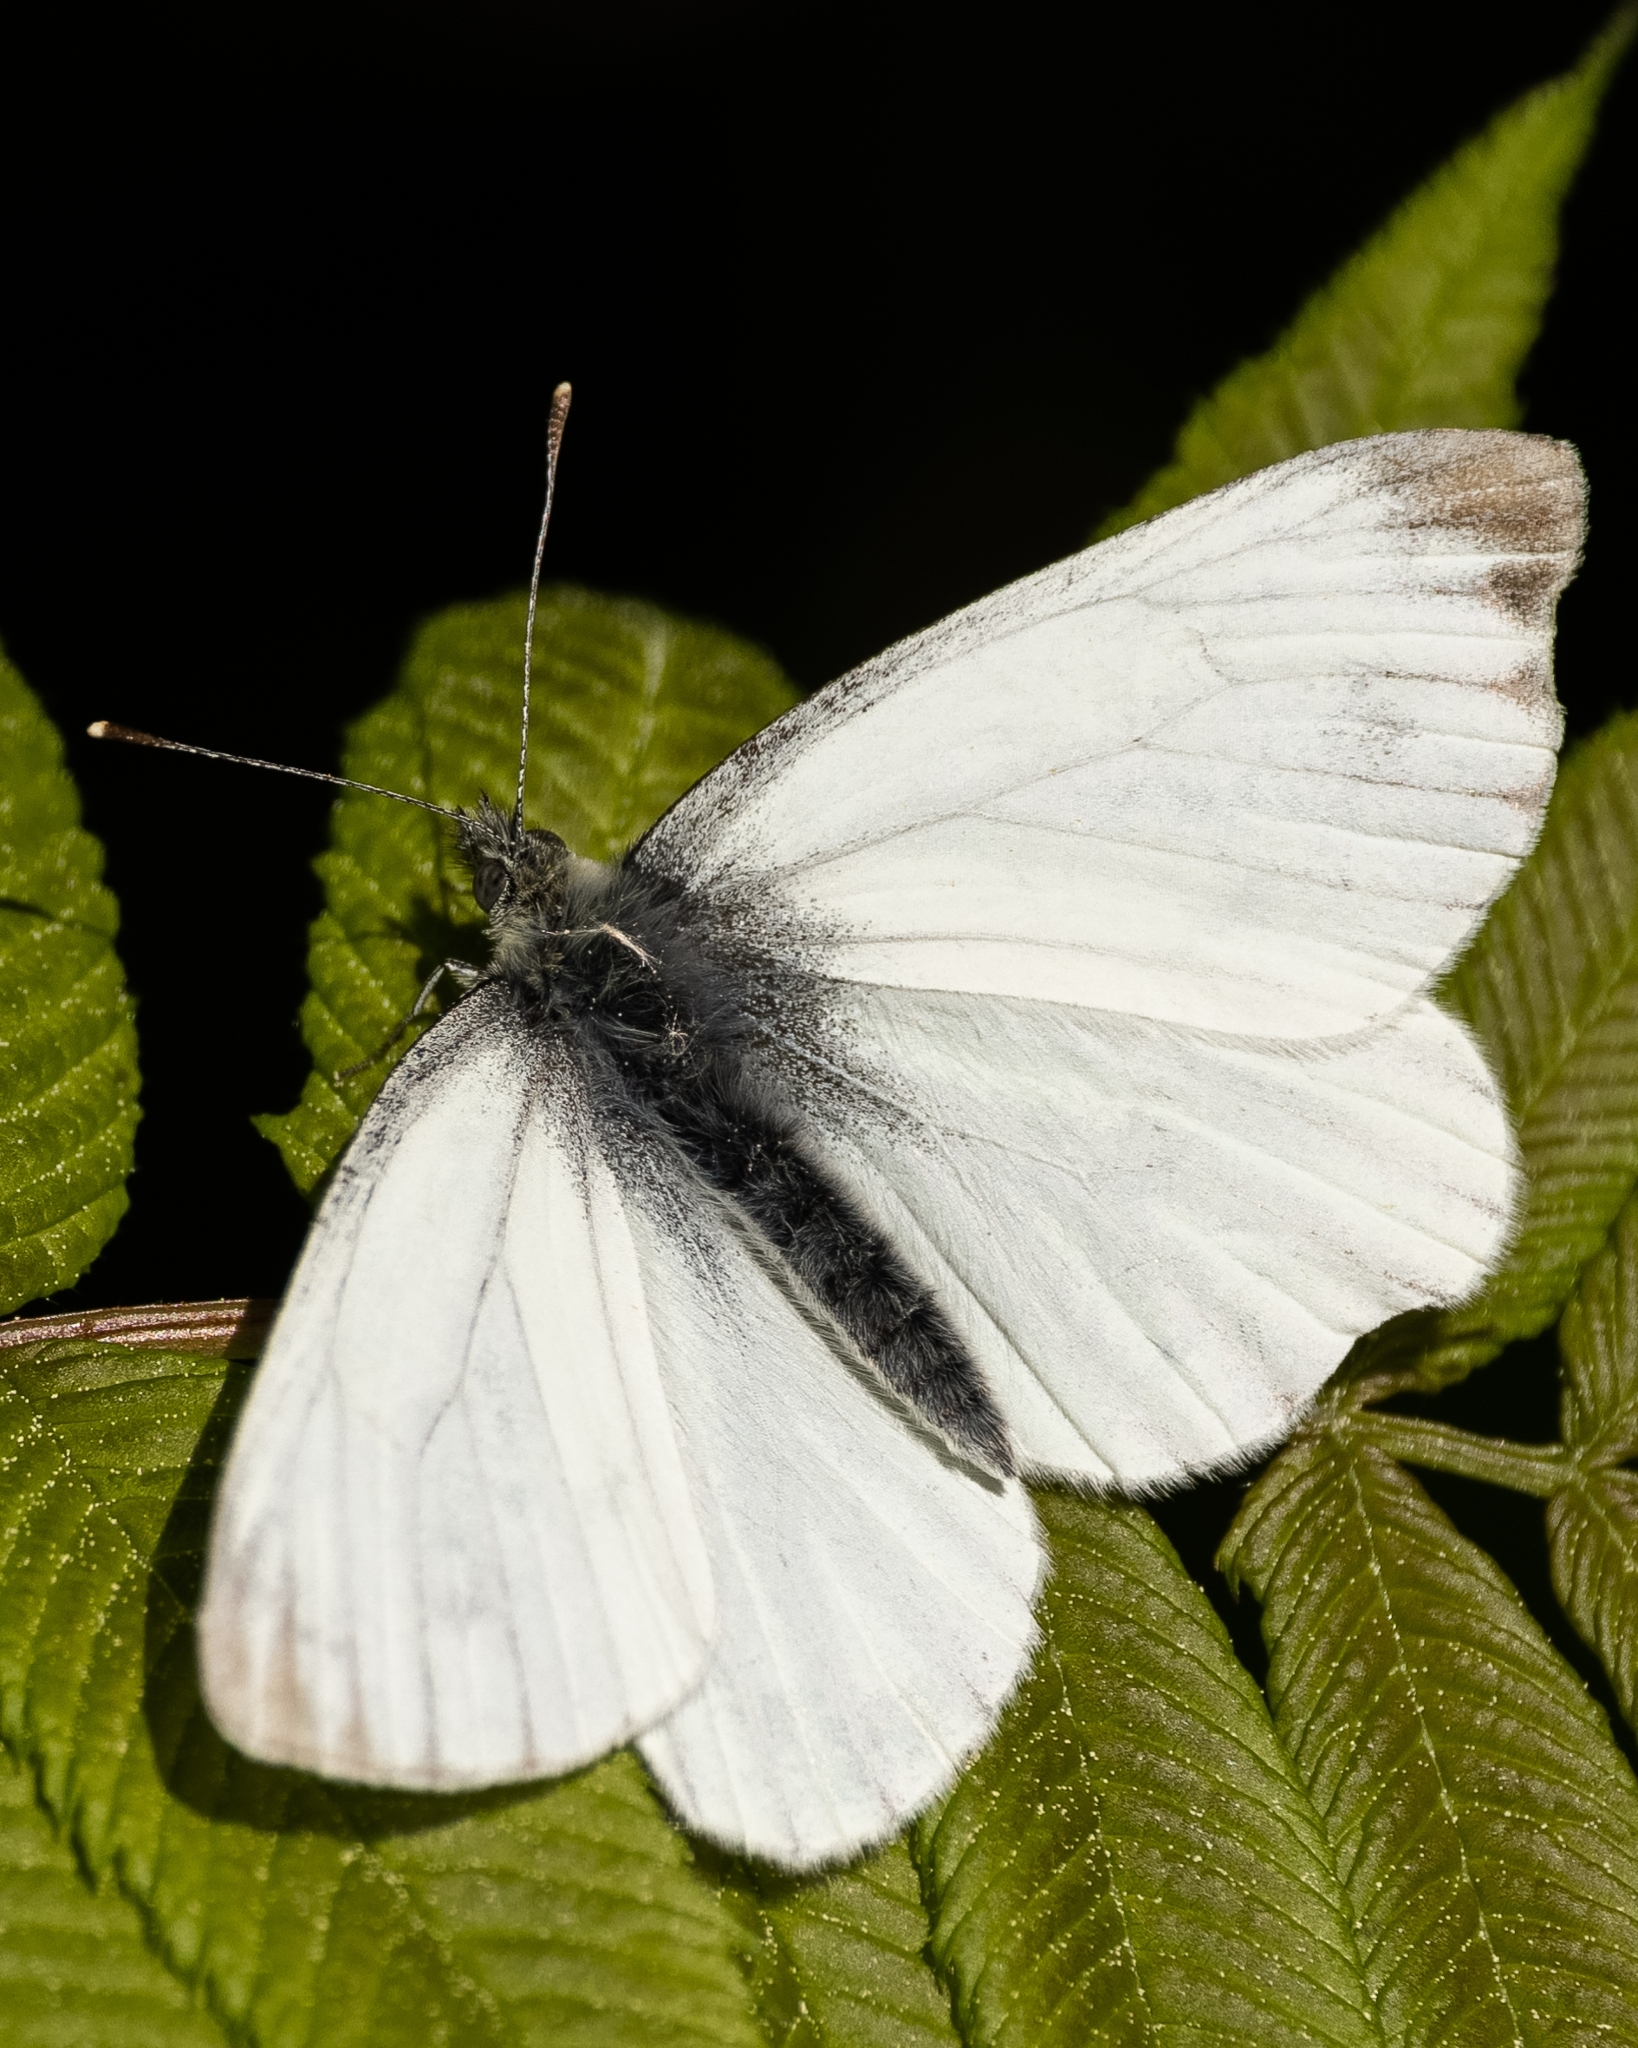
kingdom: Animalia
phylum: Arthropoda
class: Insecta
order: Lepidoptera
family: Pieridae
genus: Pieris
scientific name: Pieris napi
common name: Green-veined white
